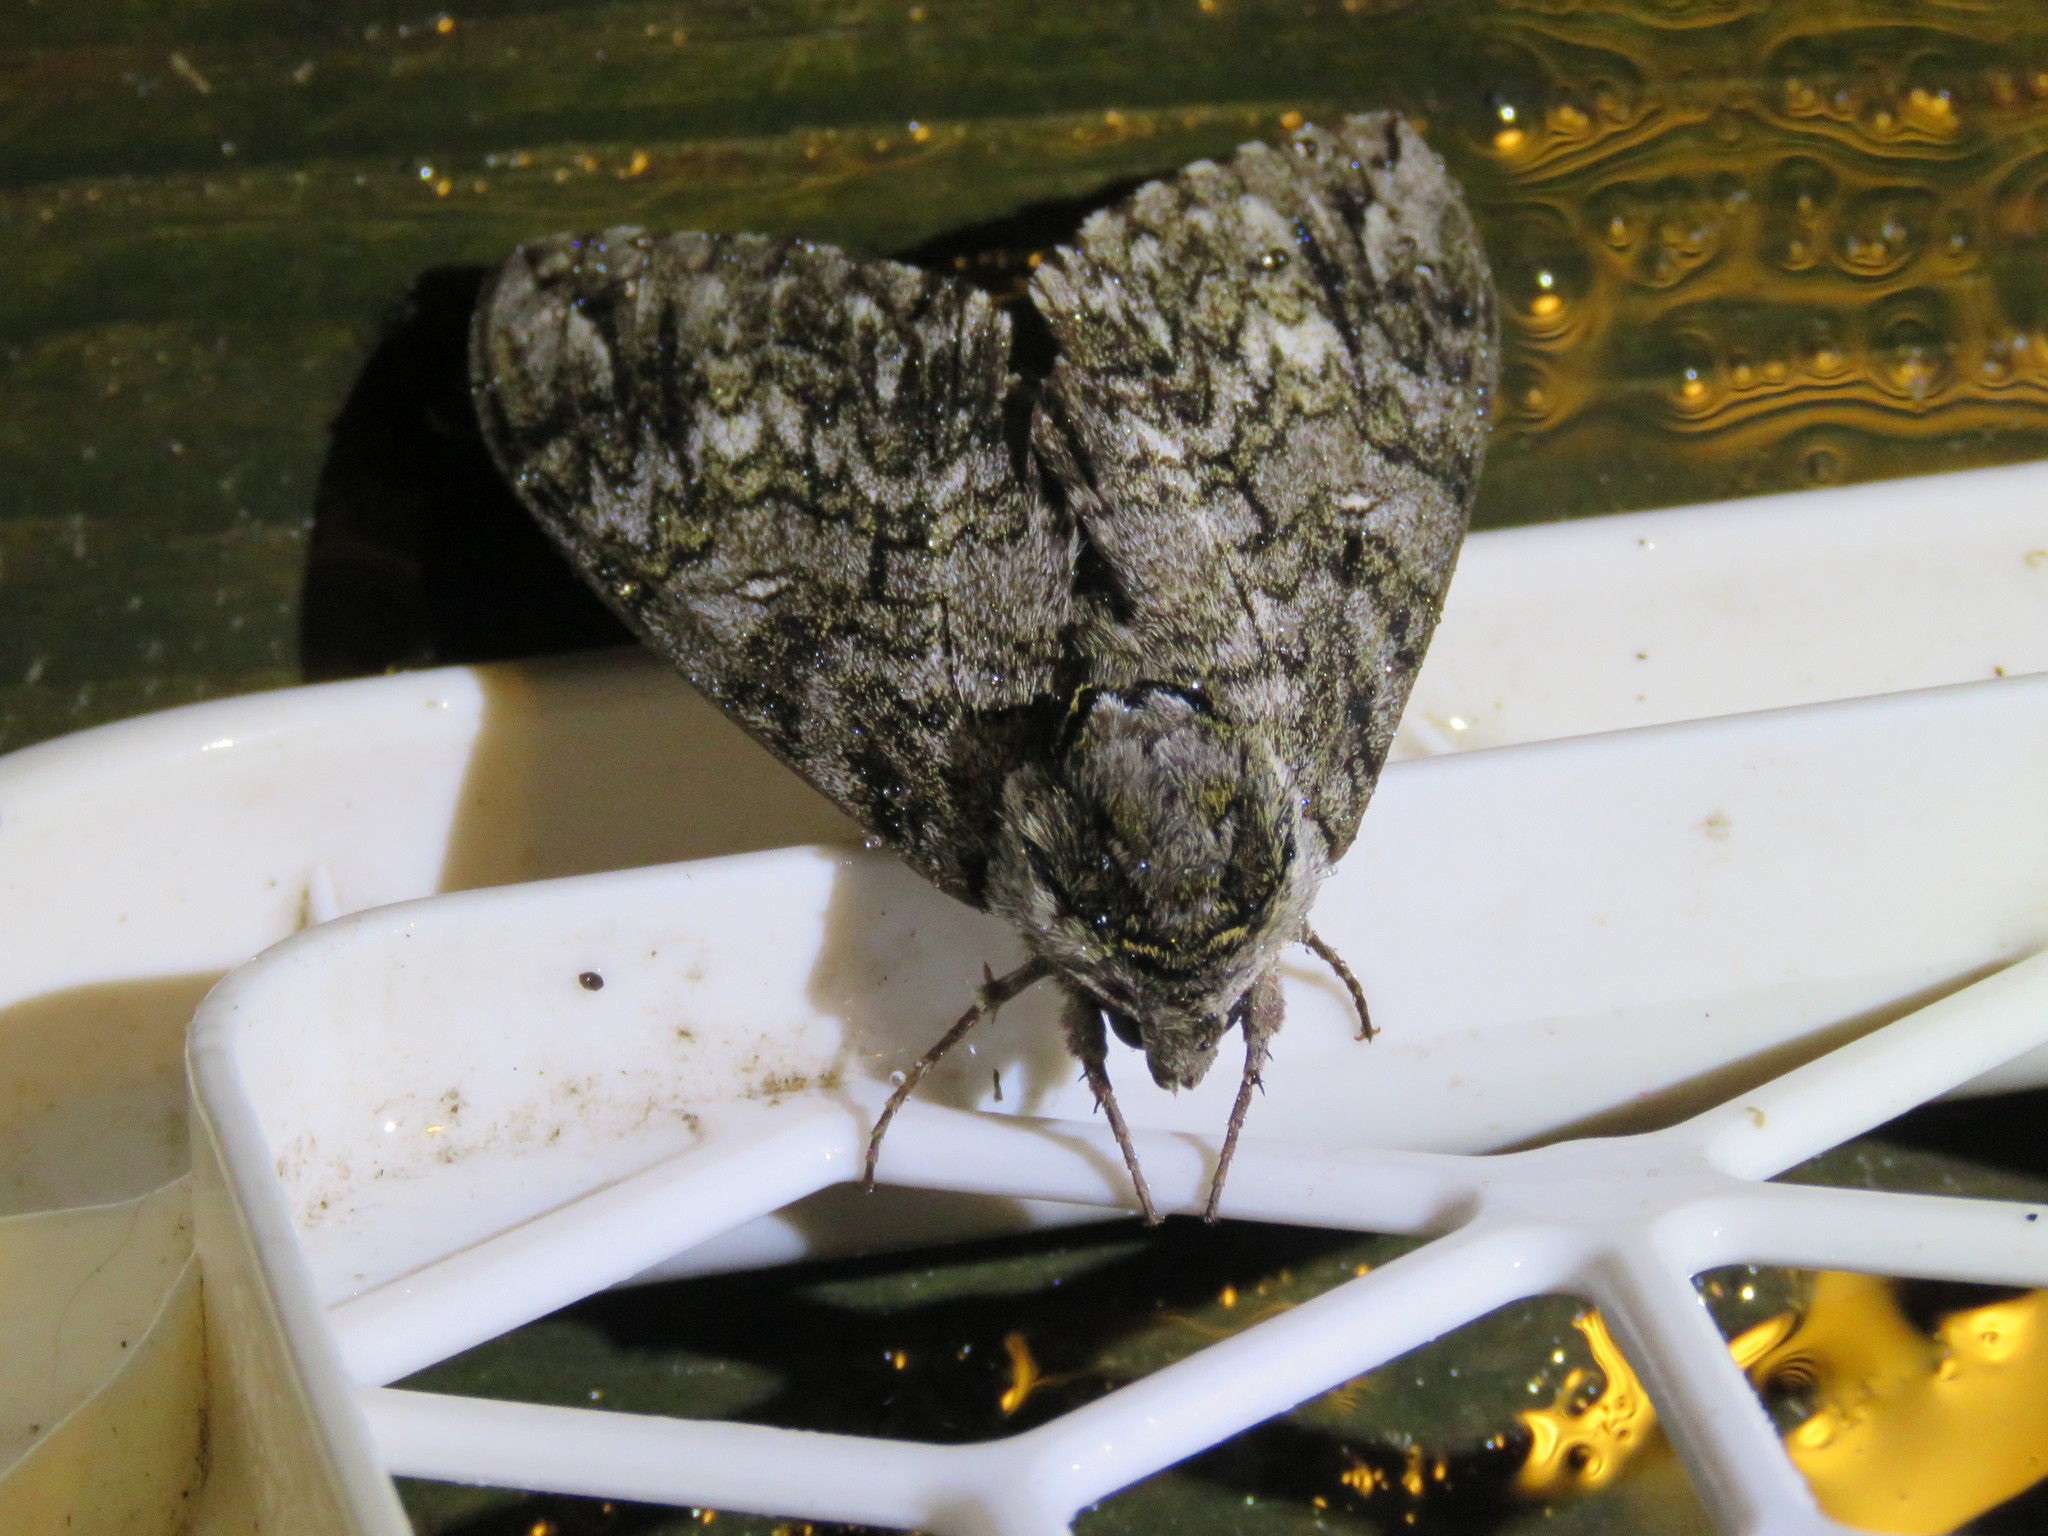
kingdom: Animalia
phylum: Arthropoda
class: Insecta
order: Lepidoptera
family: Sphingidae
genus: Ceratomia
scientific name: Ceratomia undulosa
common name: Waved sphinx
